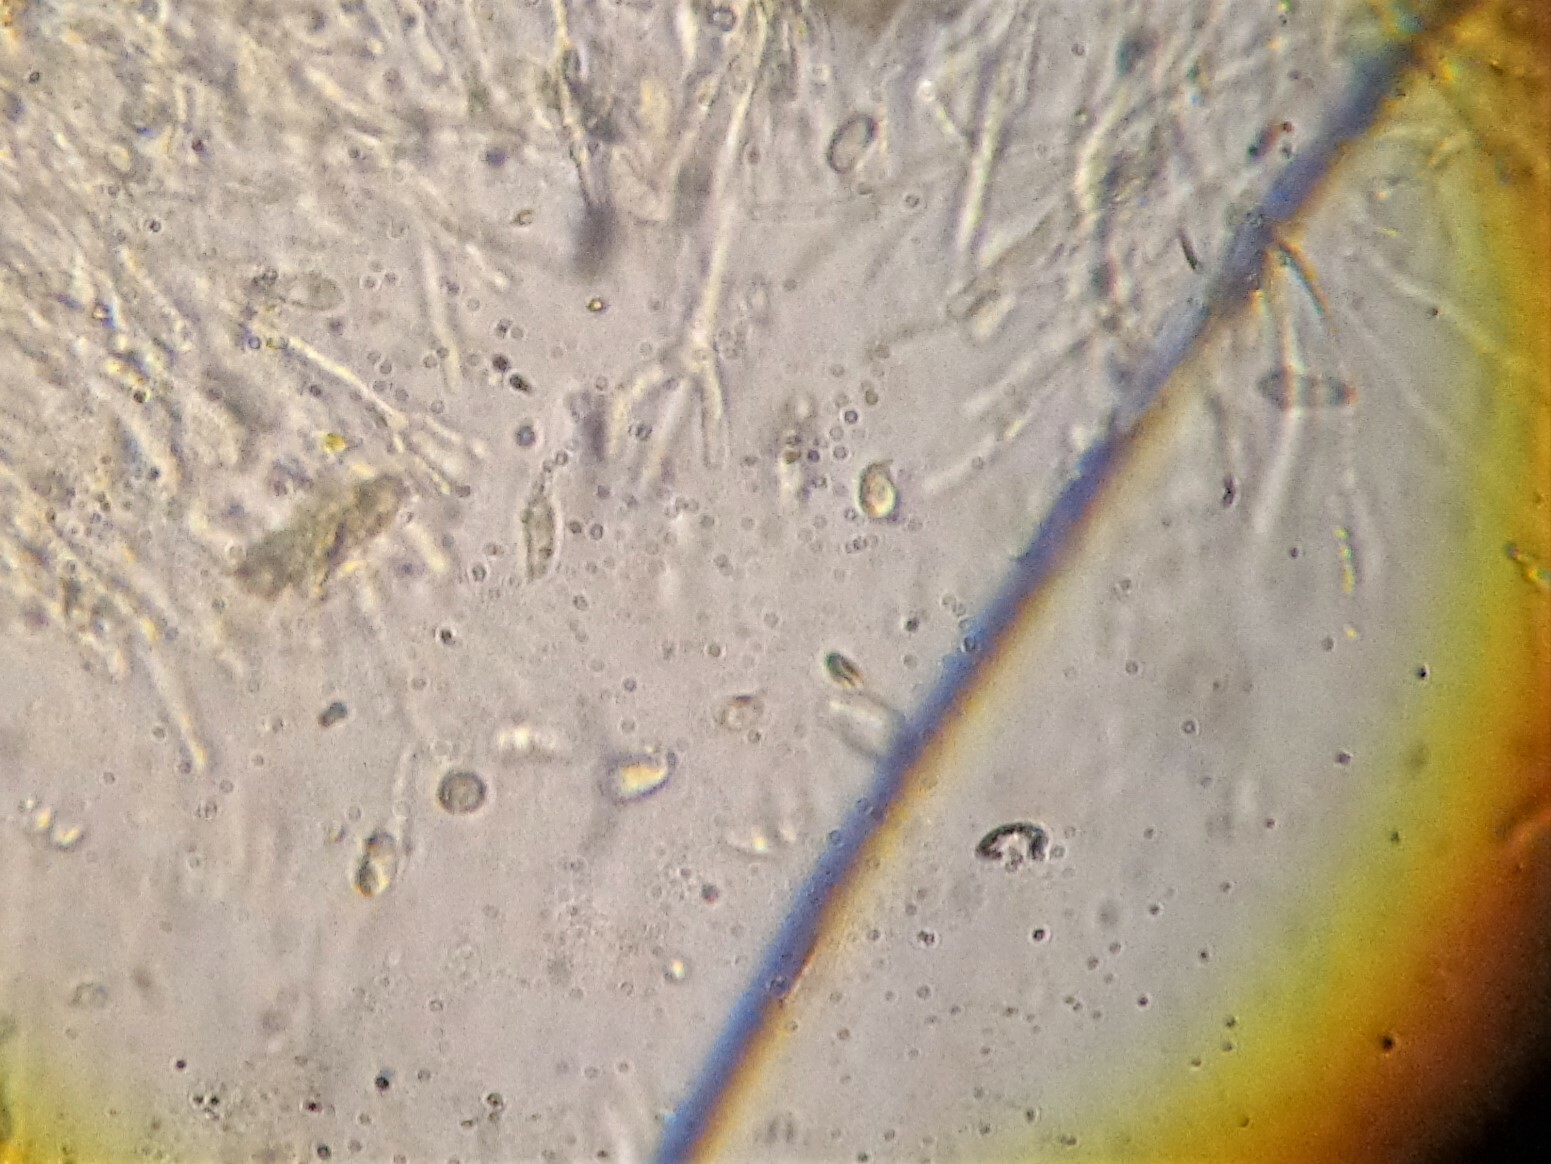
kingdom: Fungi
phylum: Basidiomycota
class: Dacrymycetes
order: Dacrymycetales
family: Dacrymycetaceae
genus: Calocera
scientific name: Calocera viscosa
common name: Yellow stagshorn
